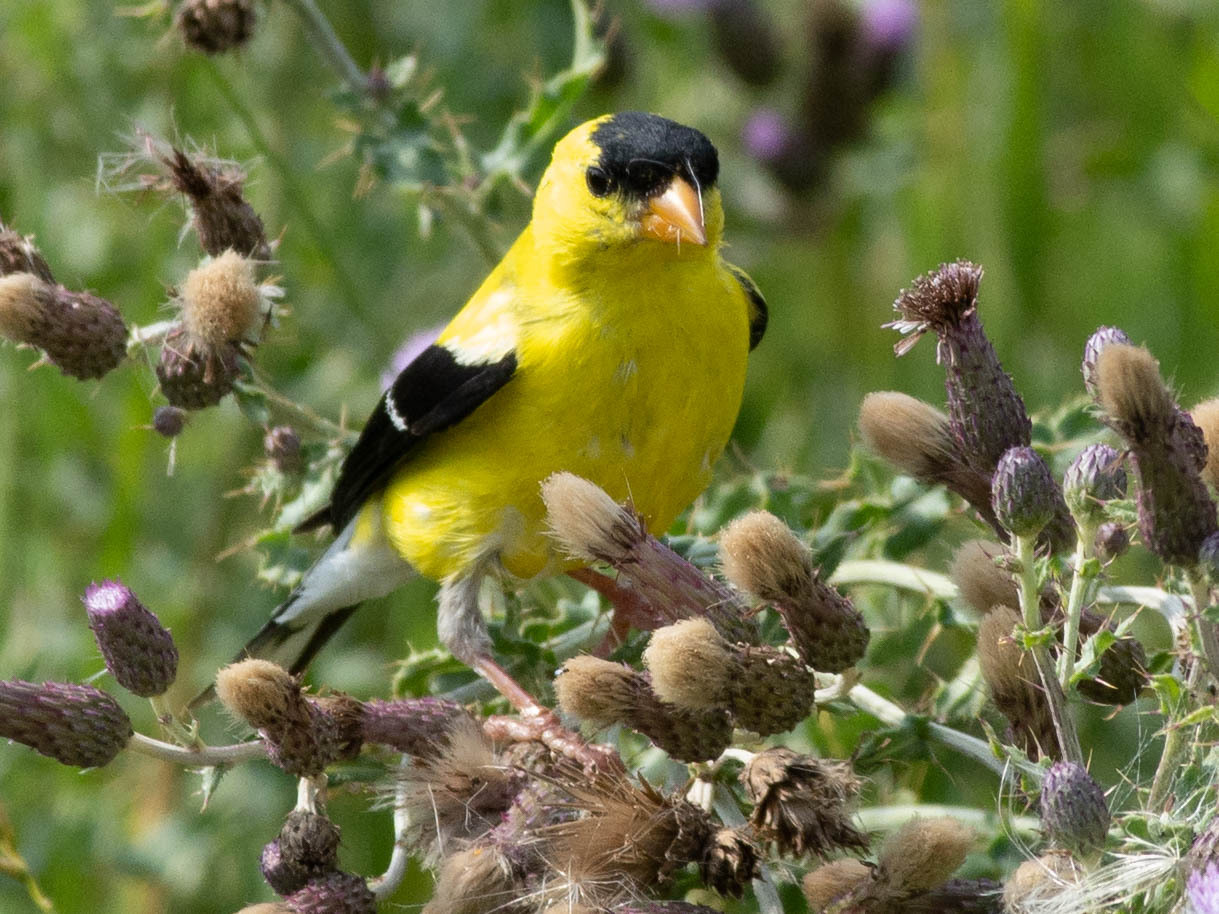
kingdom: Animalia
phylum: Chordata
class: Aves
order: Passeriformes
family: Fringillidae
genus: Spinus
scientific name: Spinus tristis
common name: American goldfinch
